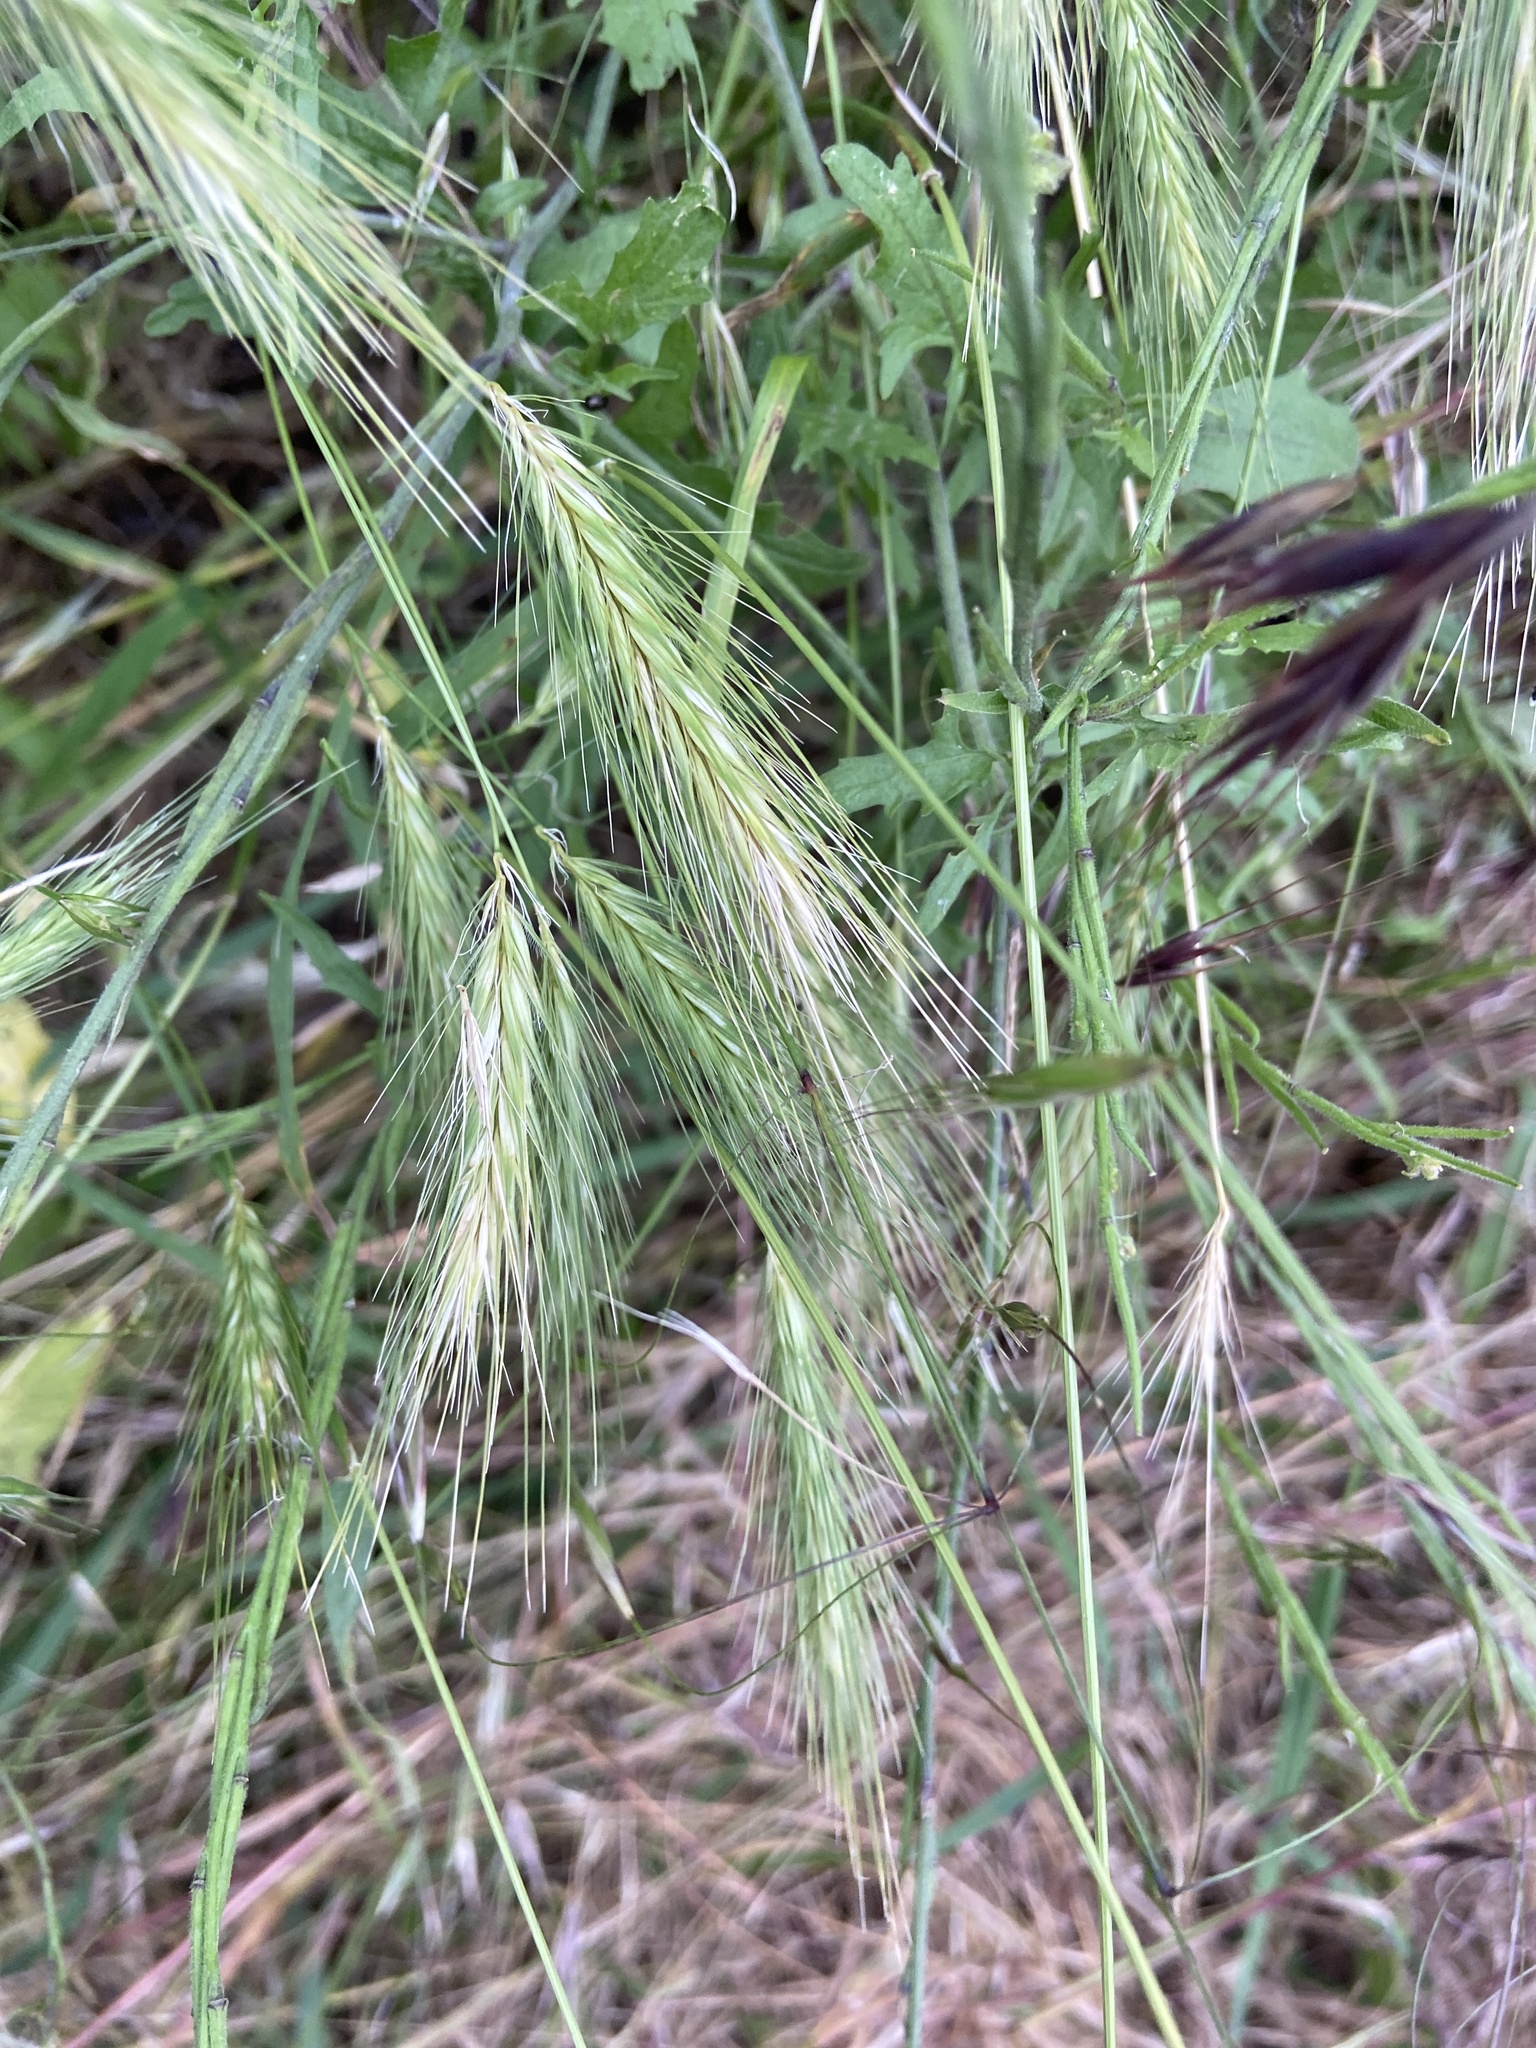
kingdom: Plantae
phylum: Tracheophyta
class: Liliopsida
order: Poales
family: Poaceae
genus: Hordeum
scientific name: Hordeum murinum
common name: Wall barley
